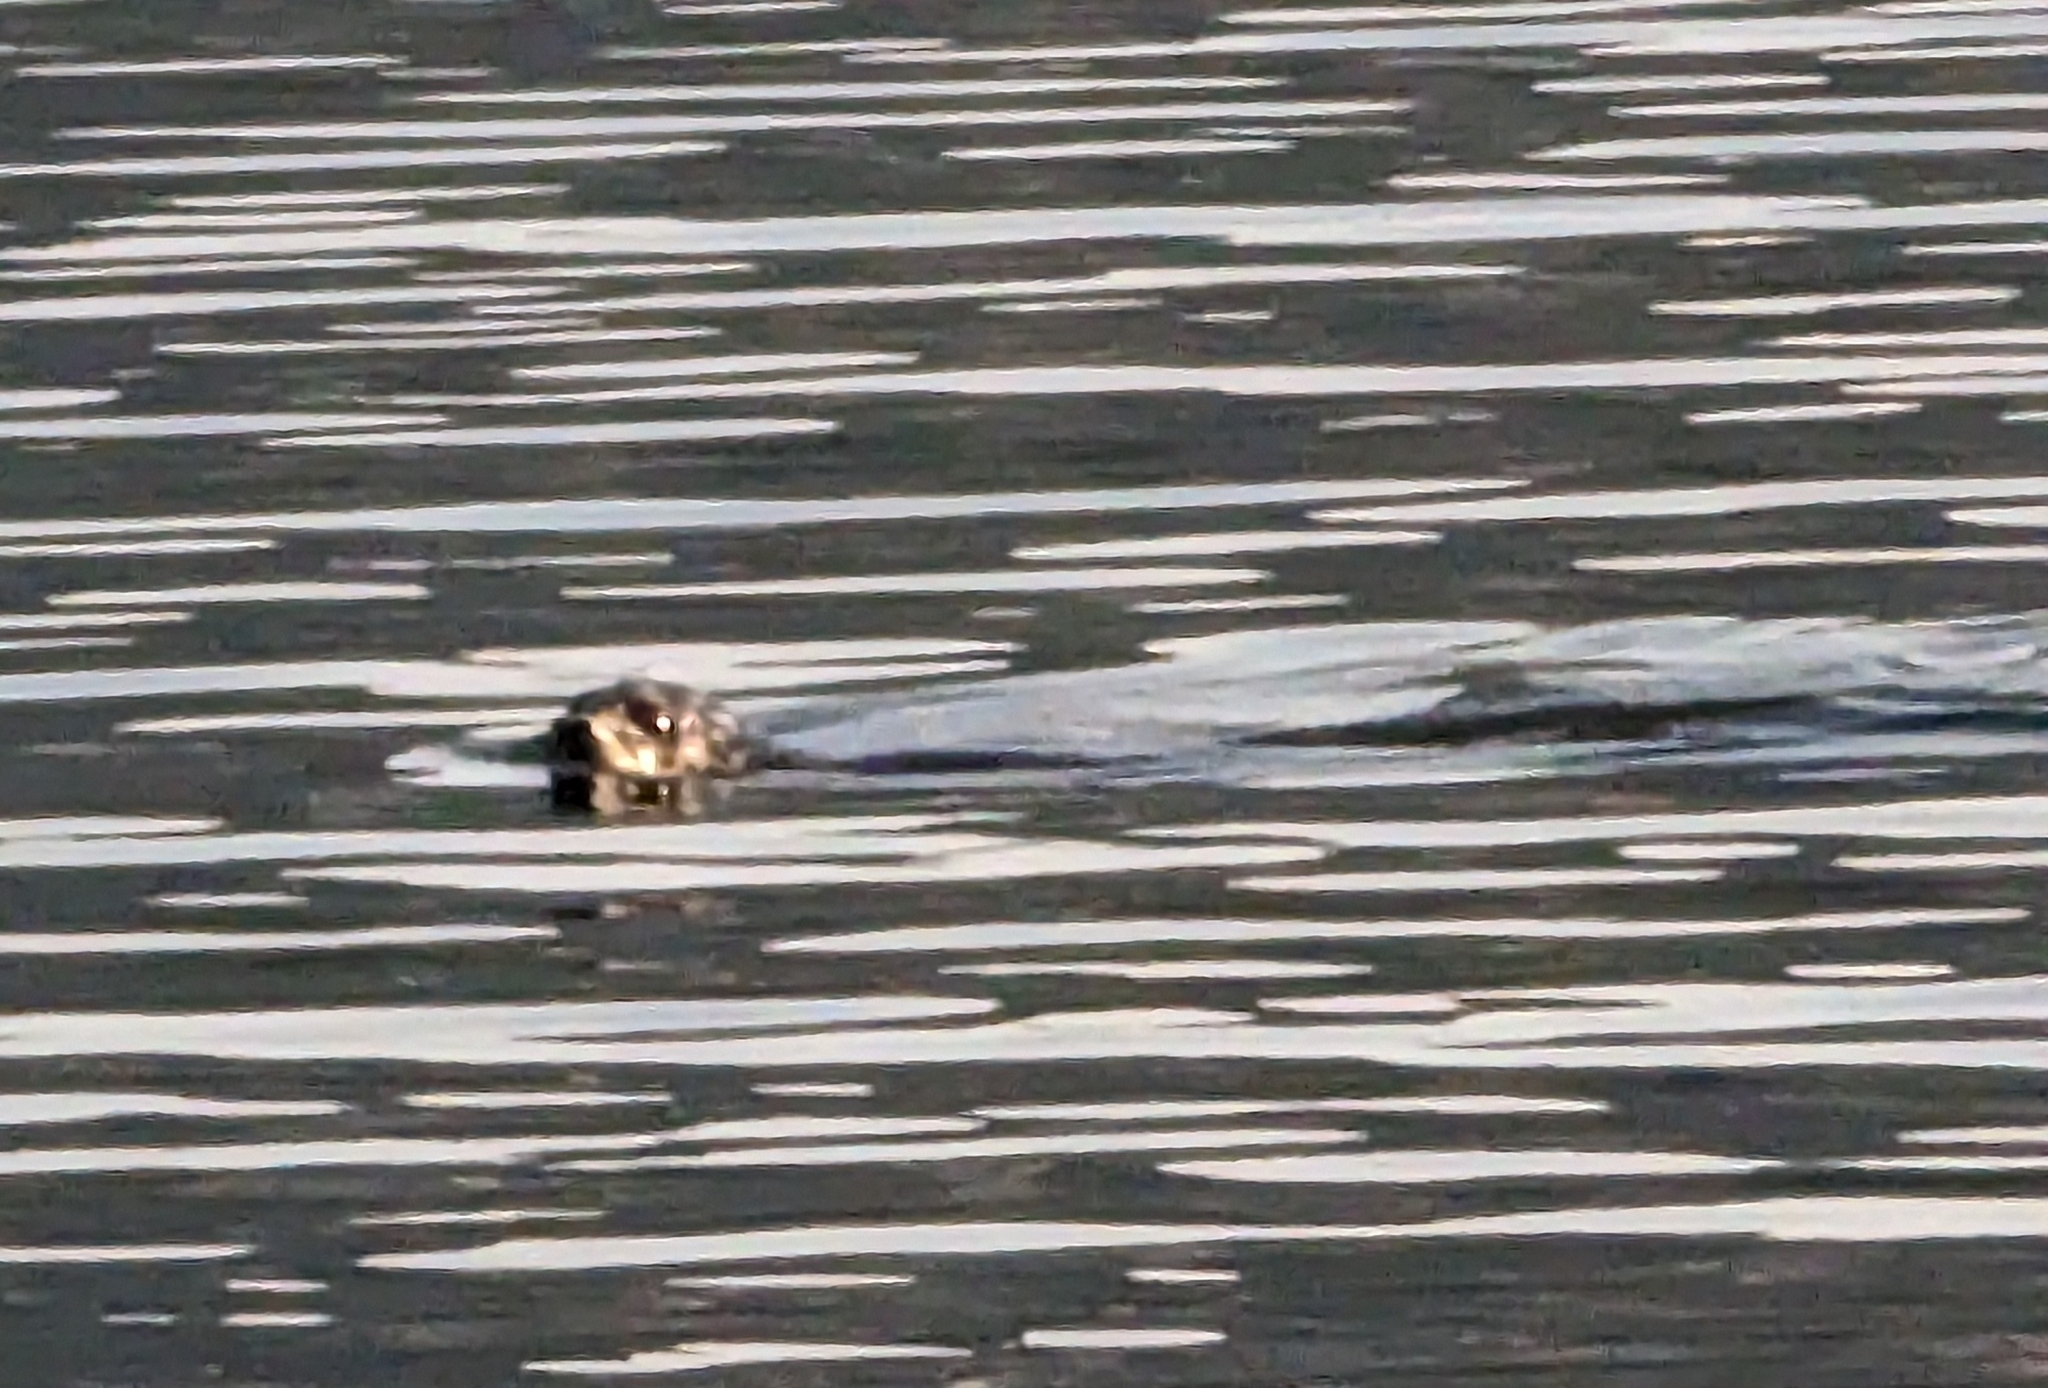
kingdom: Animalia
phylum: Chordata
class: Mammalia
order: Carnivora
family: Phocidae
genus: Phoca
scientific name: Phoca vitulina
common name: Harbor seal
